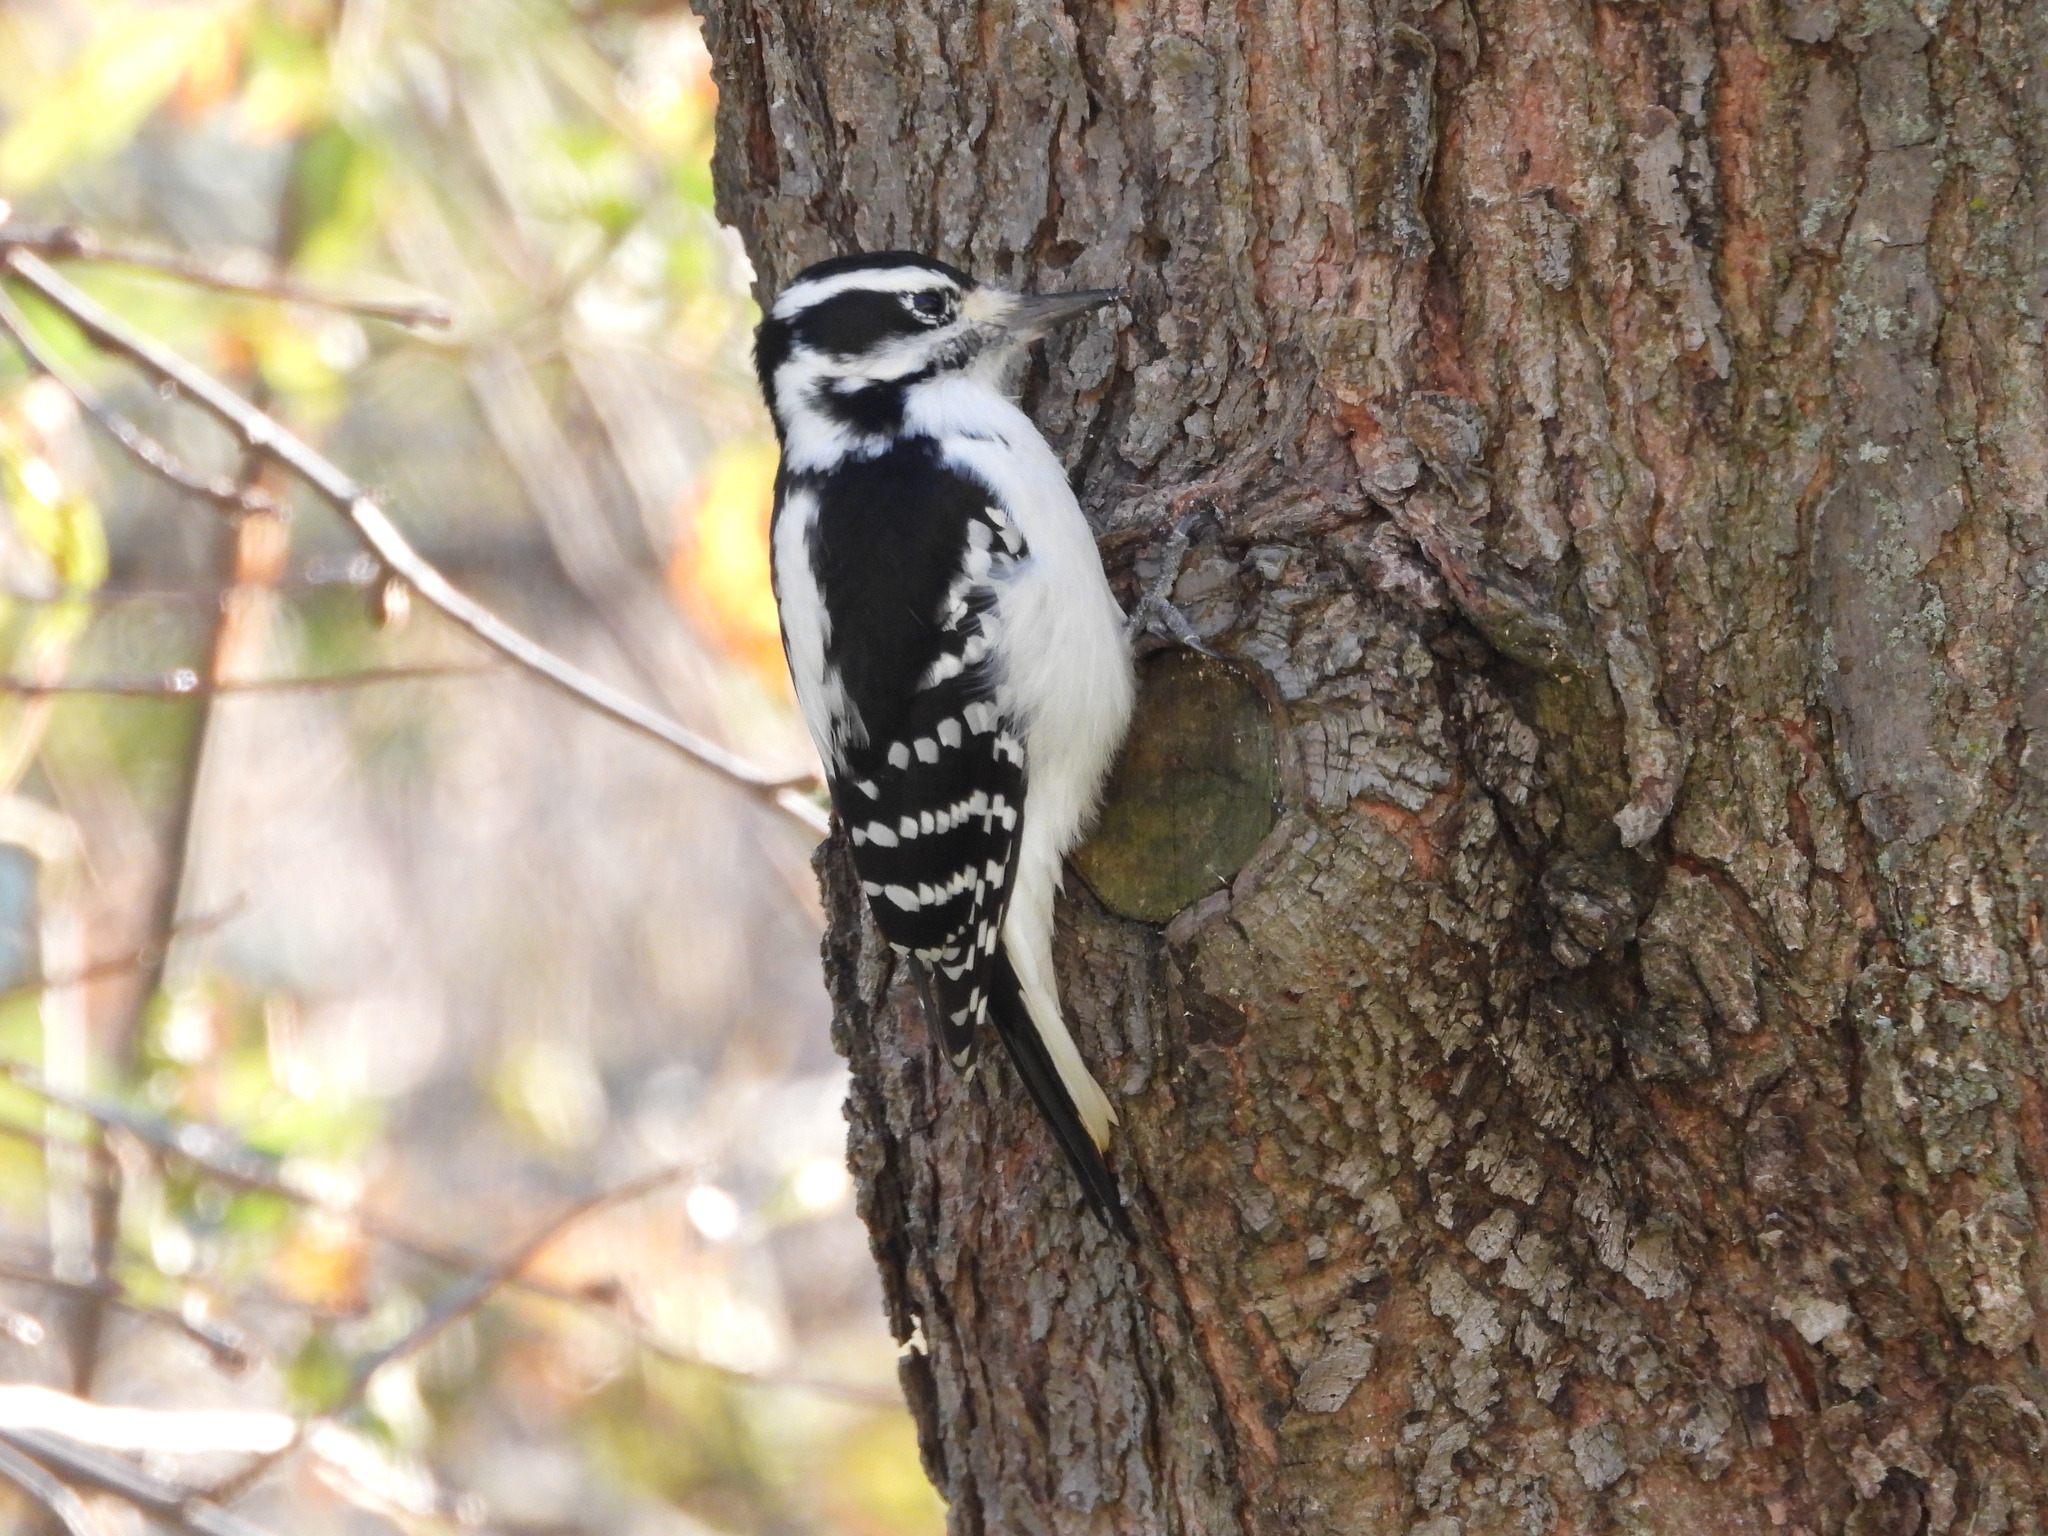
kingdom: Animalia
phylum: Chordata
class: Aves
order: Piciformes
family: Picidae
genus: Leuconotopicus
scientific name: Leuconotopicus villosus
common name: Hairy woodpecker
